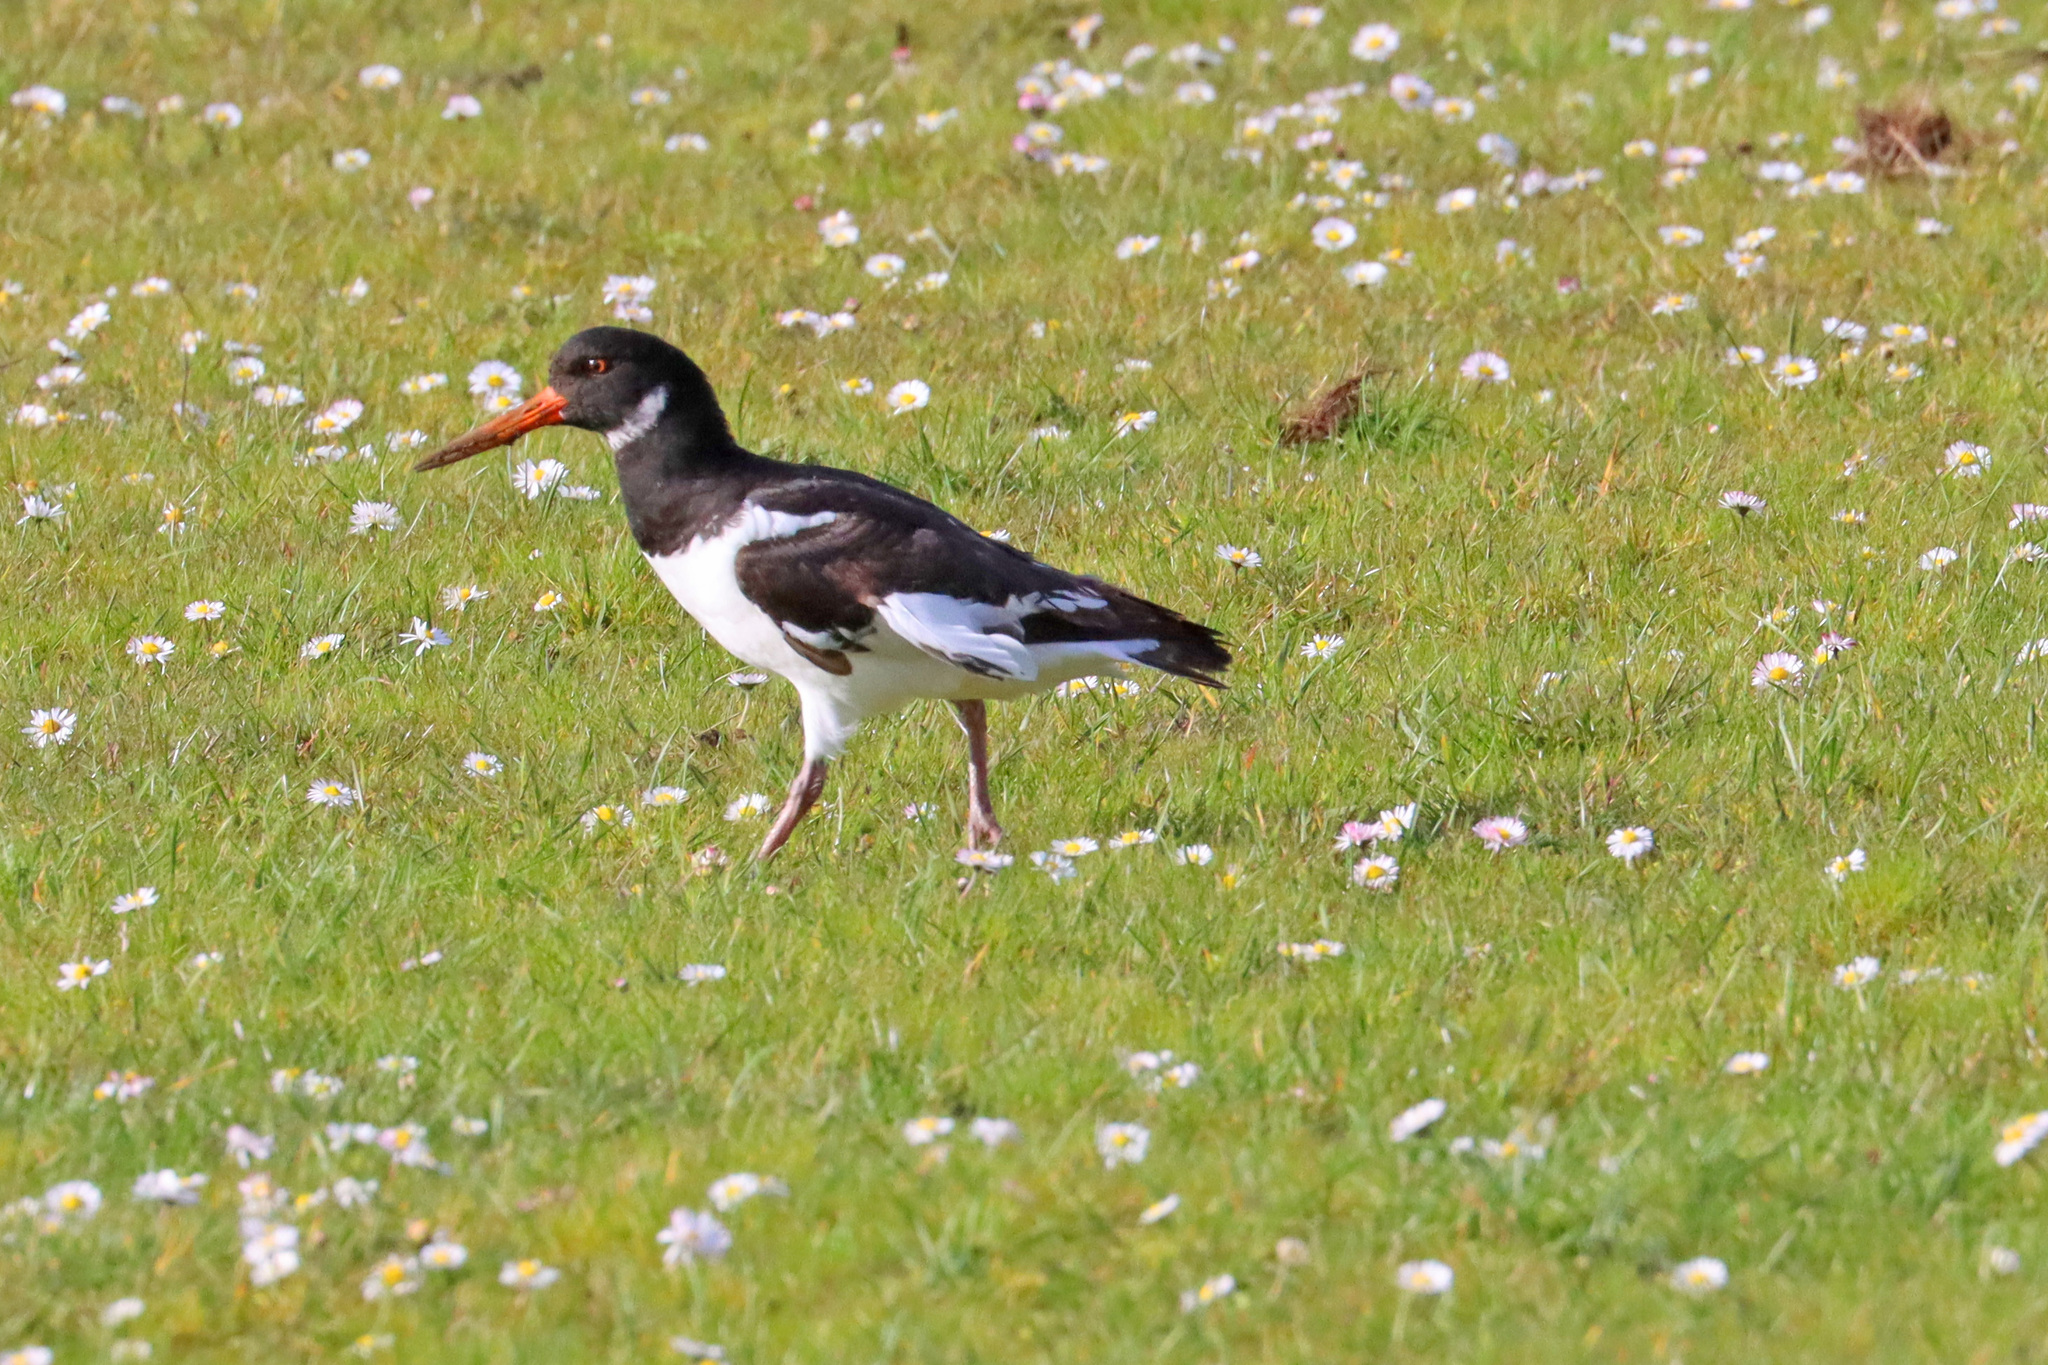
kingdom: Animalia
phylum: Chordata
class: Aves
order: Charadriiformes
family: Haematopodidae
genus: Haematopus
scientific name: Haematopus ostralegus
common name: Eurasian oystercatcher
